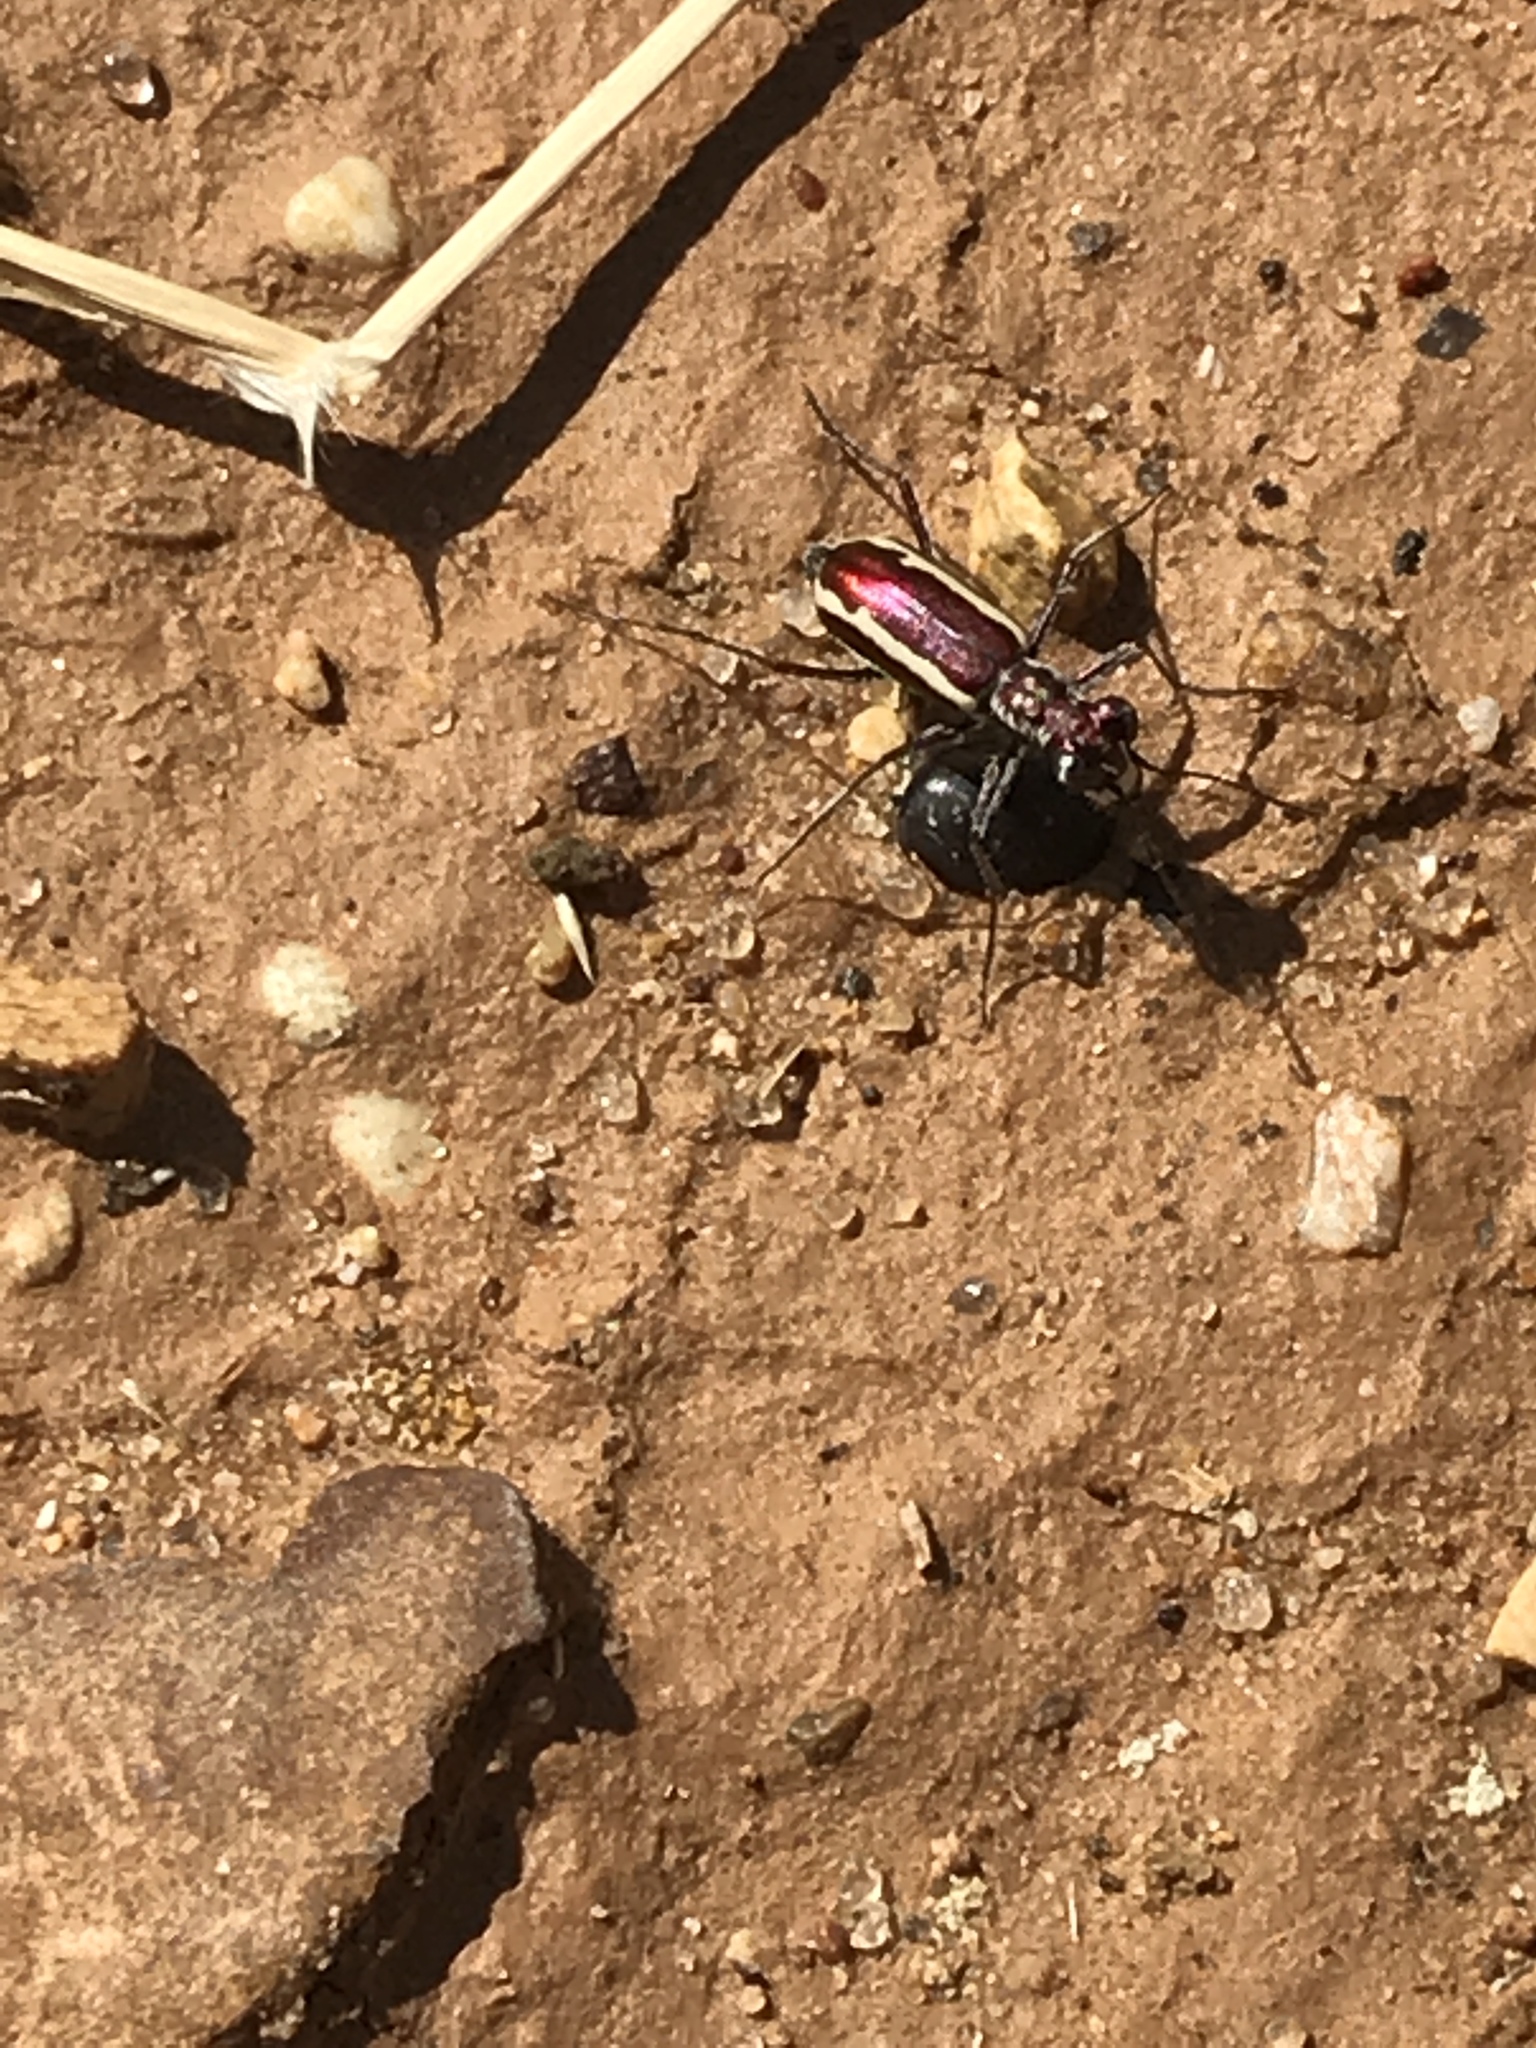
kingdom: Animalia
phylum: Arthropoda
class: Insecta
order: Coleoptera
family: Carabidae
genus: Cylindera
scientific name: Cylindera lemniscata
